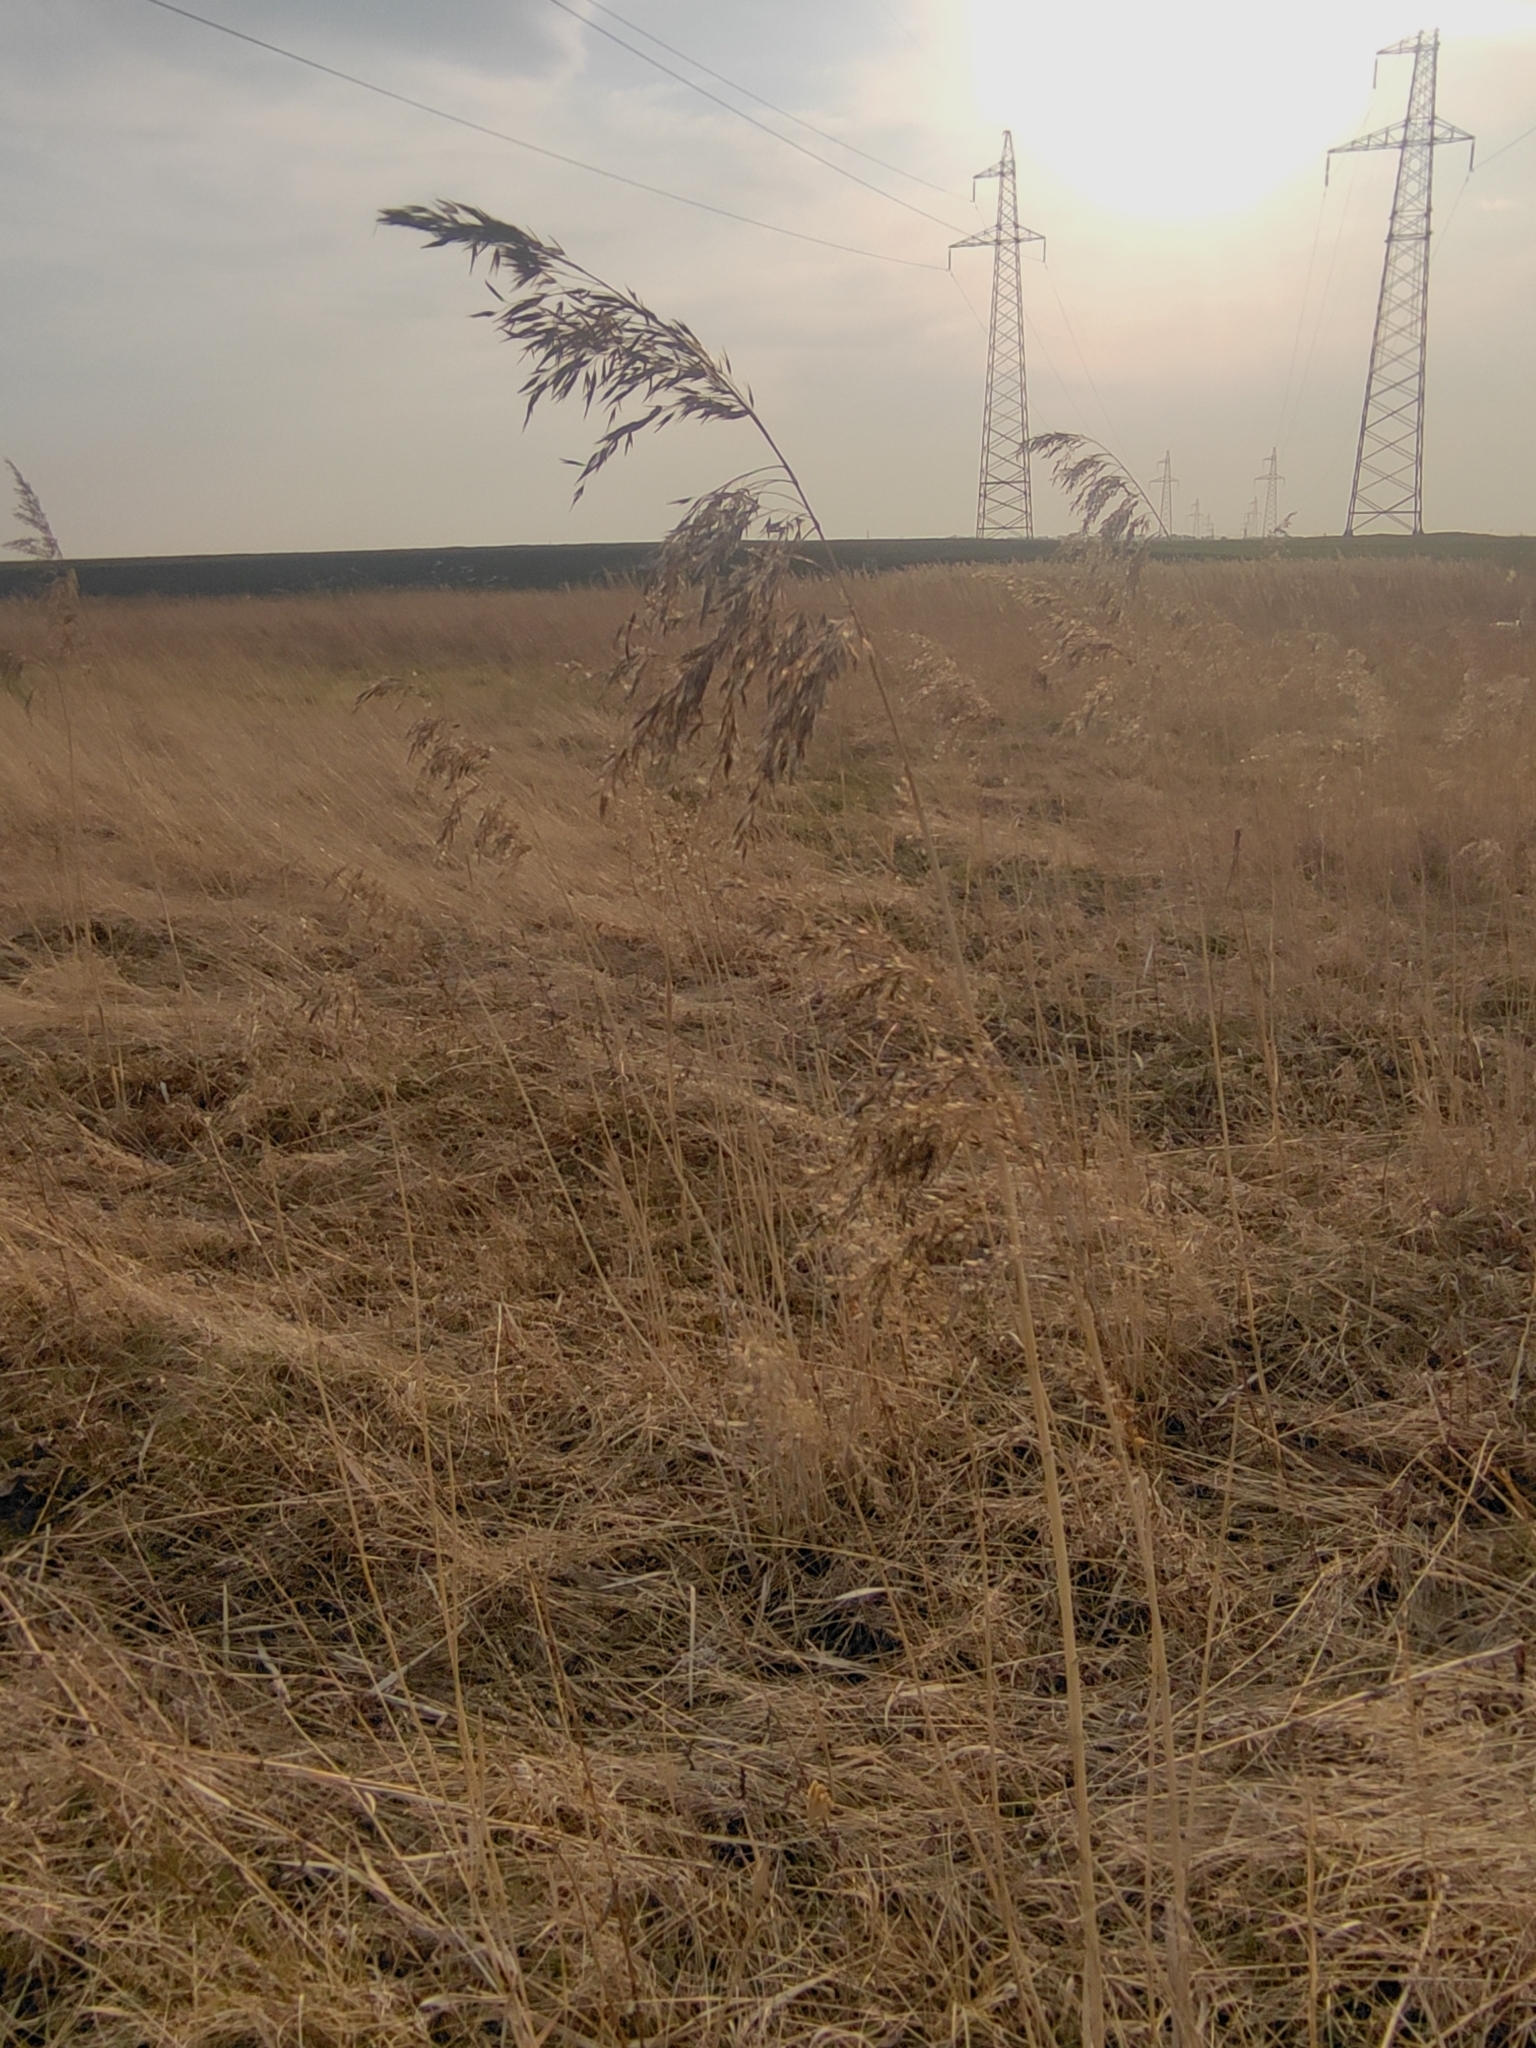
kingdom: Plantae
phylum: Tracheophyta
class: Liliopsida
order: Poales
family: Poaceae
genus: Phragmites
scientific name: Phragmites australis
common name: Common reed
